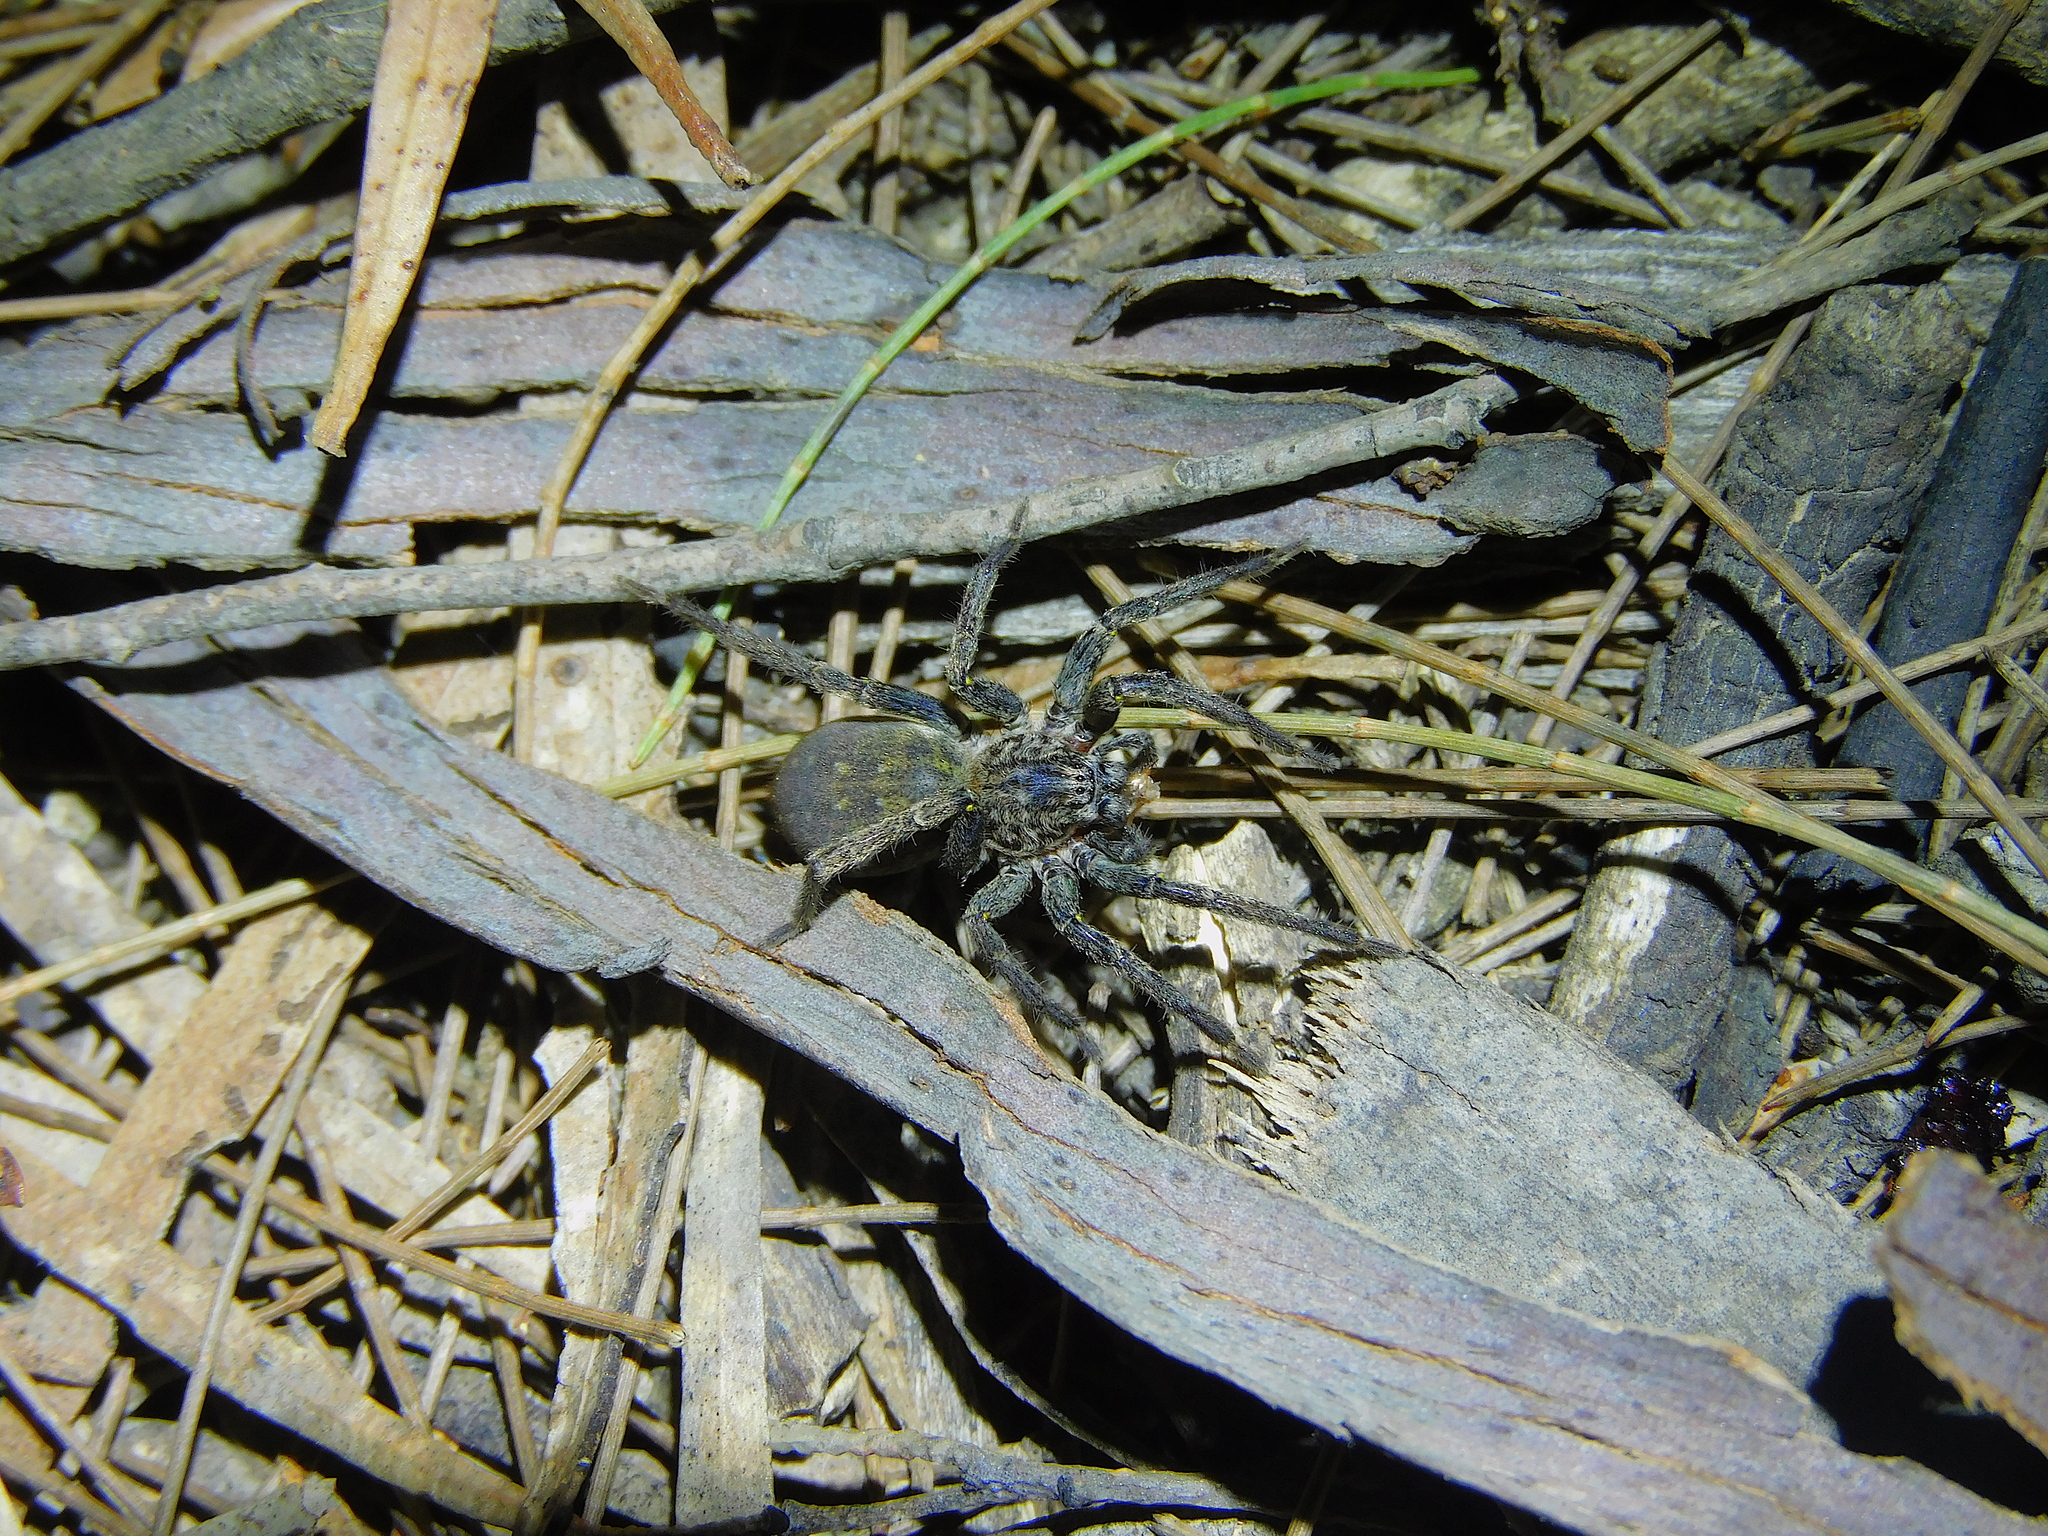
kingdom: Animalia
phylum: Arthropoda
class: Arachnida
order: Araneae
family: Miturgidae
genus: Mituliodon
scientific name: Mituliodon tarantulinus
